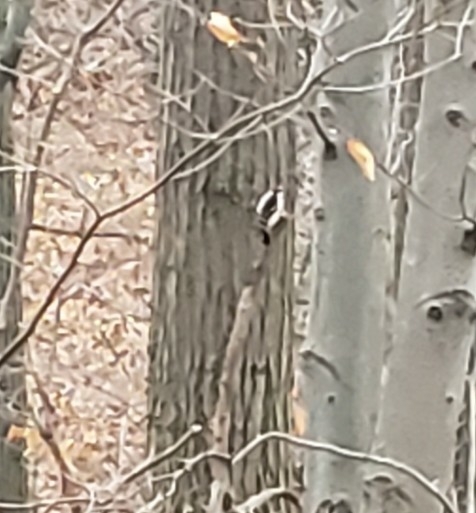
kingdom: Animalia
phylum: Chordata
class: Aves
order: Piciformes
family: Picidae
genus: Dryobates
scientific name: Dryobates pubescens
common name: Downy woodpecker
